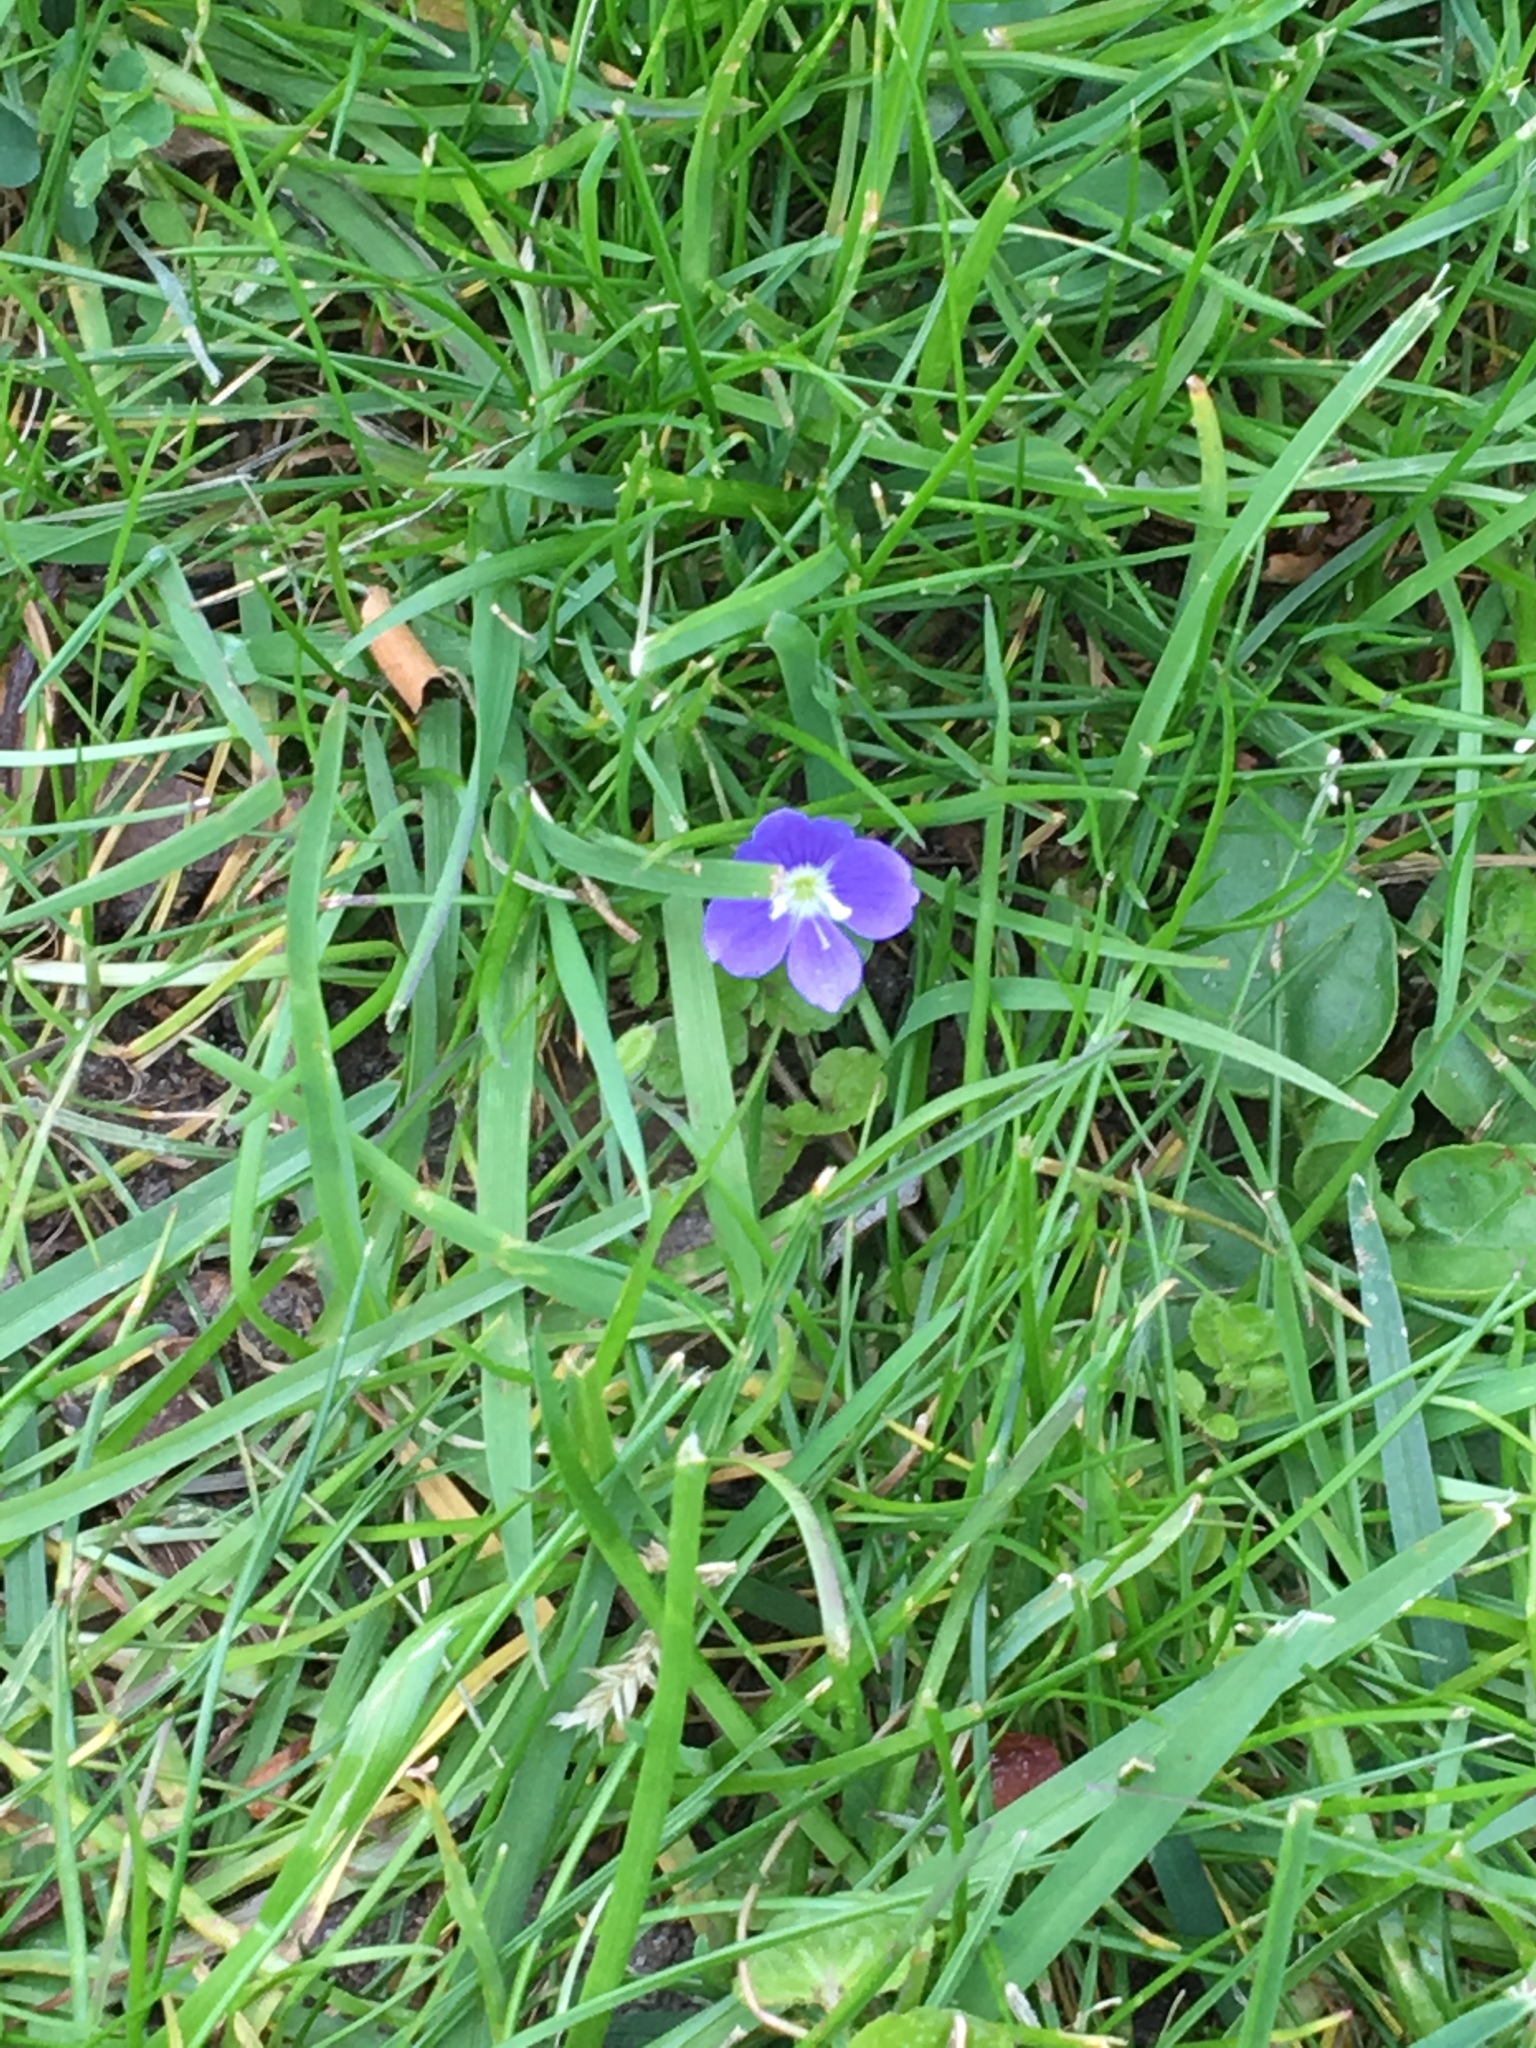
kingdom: Plantae
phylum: Tracheophyta
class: Magnoliopsida
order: Lamiales
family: Plantaginaceae
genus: Veronica
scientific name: Veronica filiformis
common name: Slender speedwell
